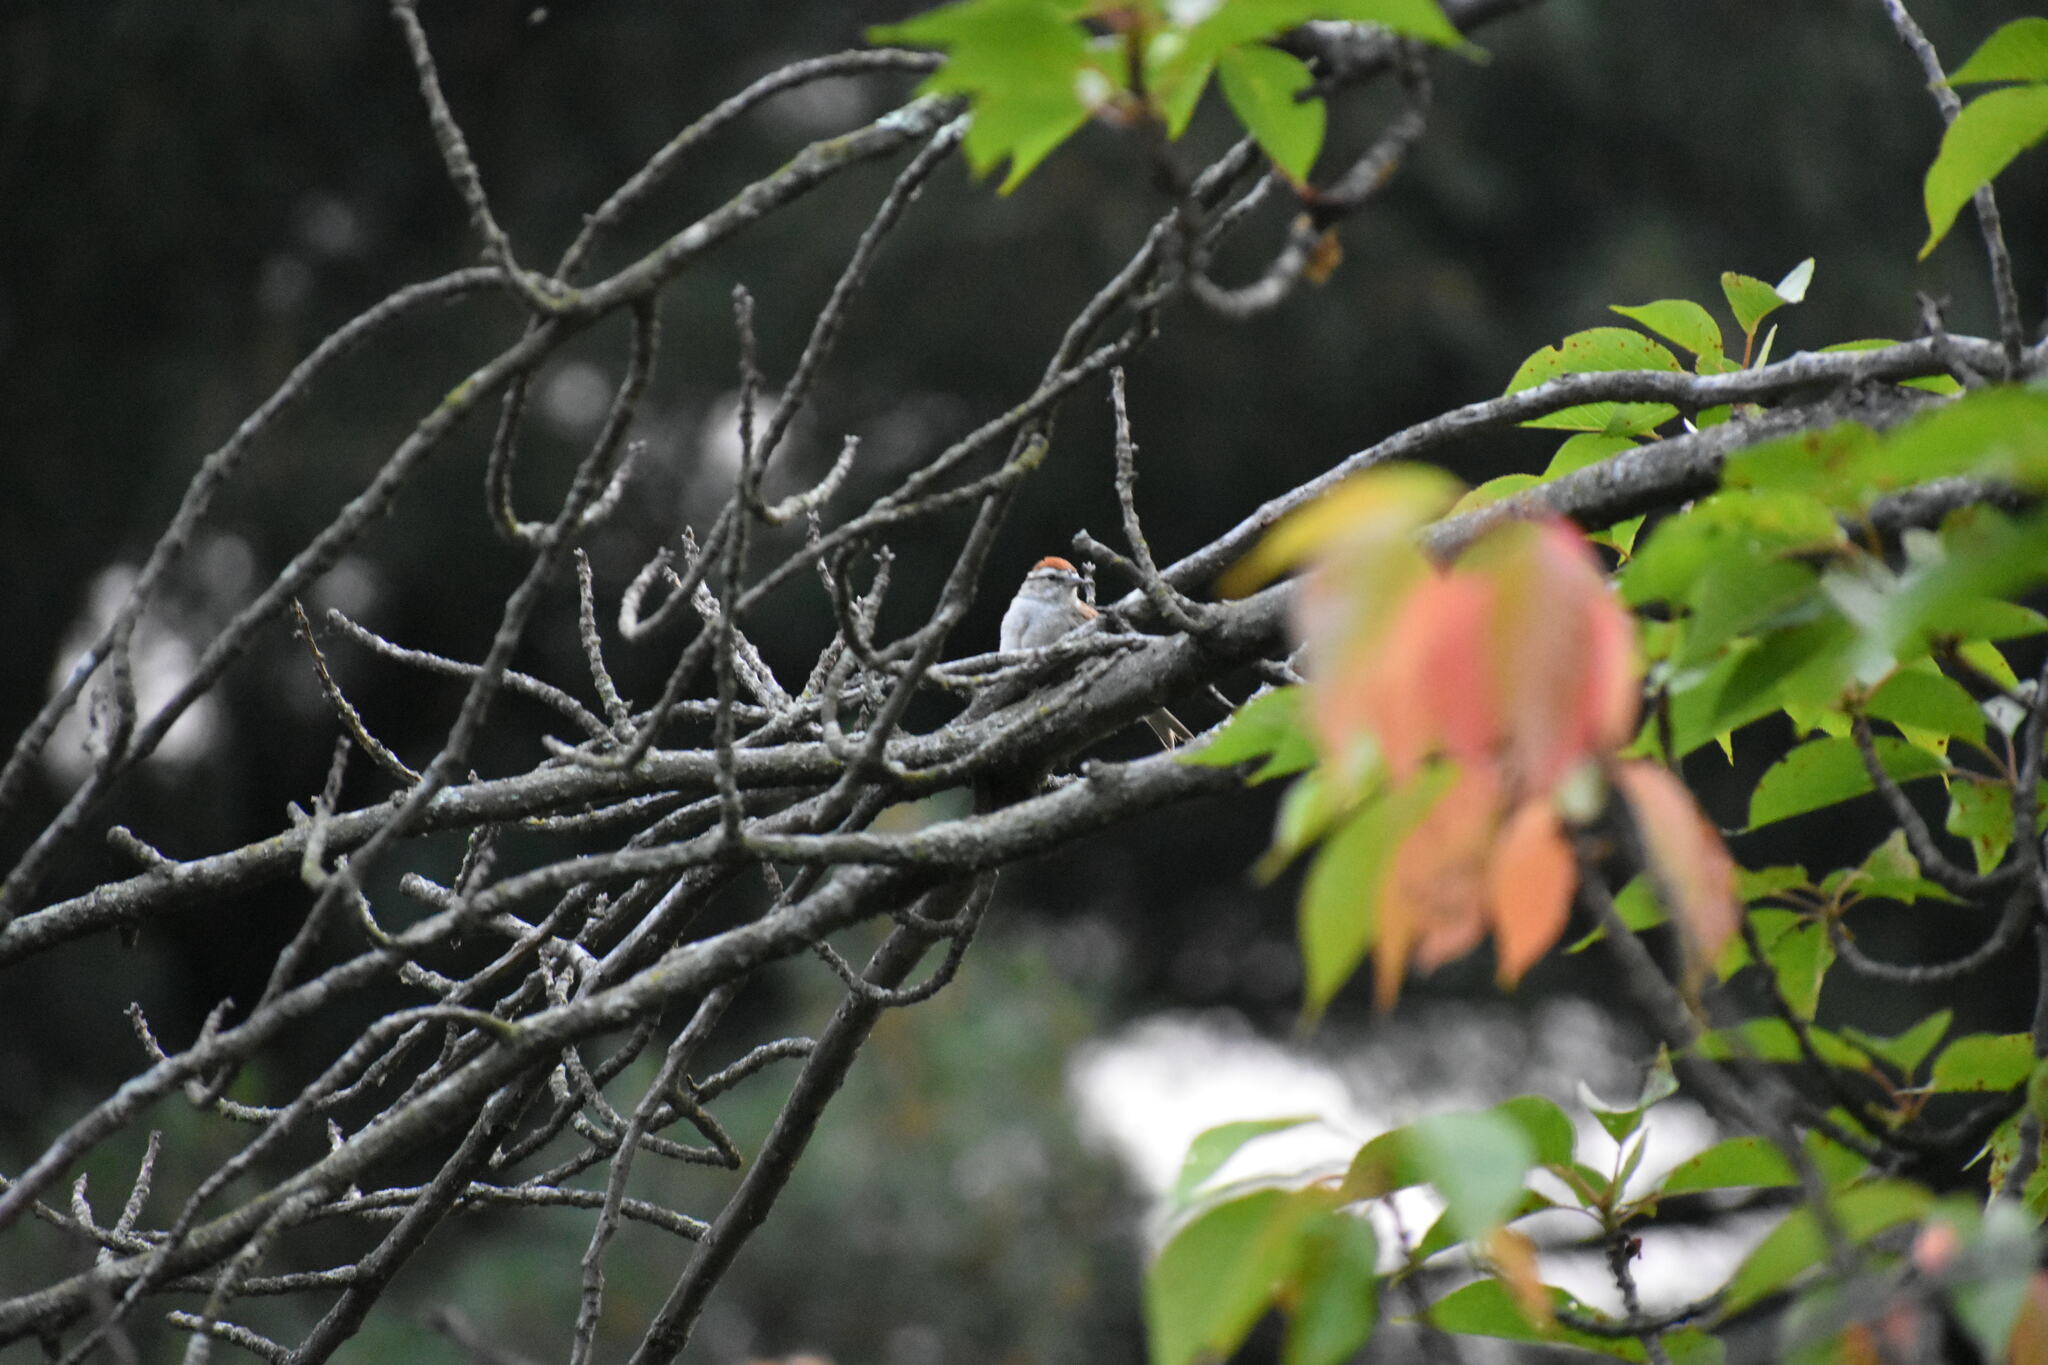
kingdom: Animalia
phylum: Chordata
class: Aves
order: Passeriformes
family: Passerellidae
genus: Spizella
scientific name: Spizella passerina
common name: Chipping sparrow
